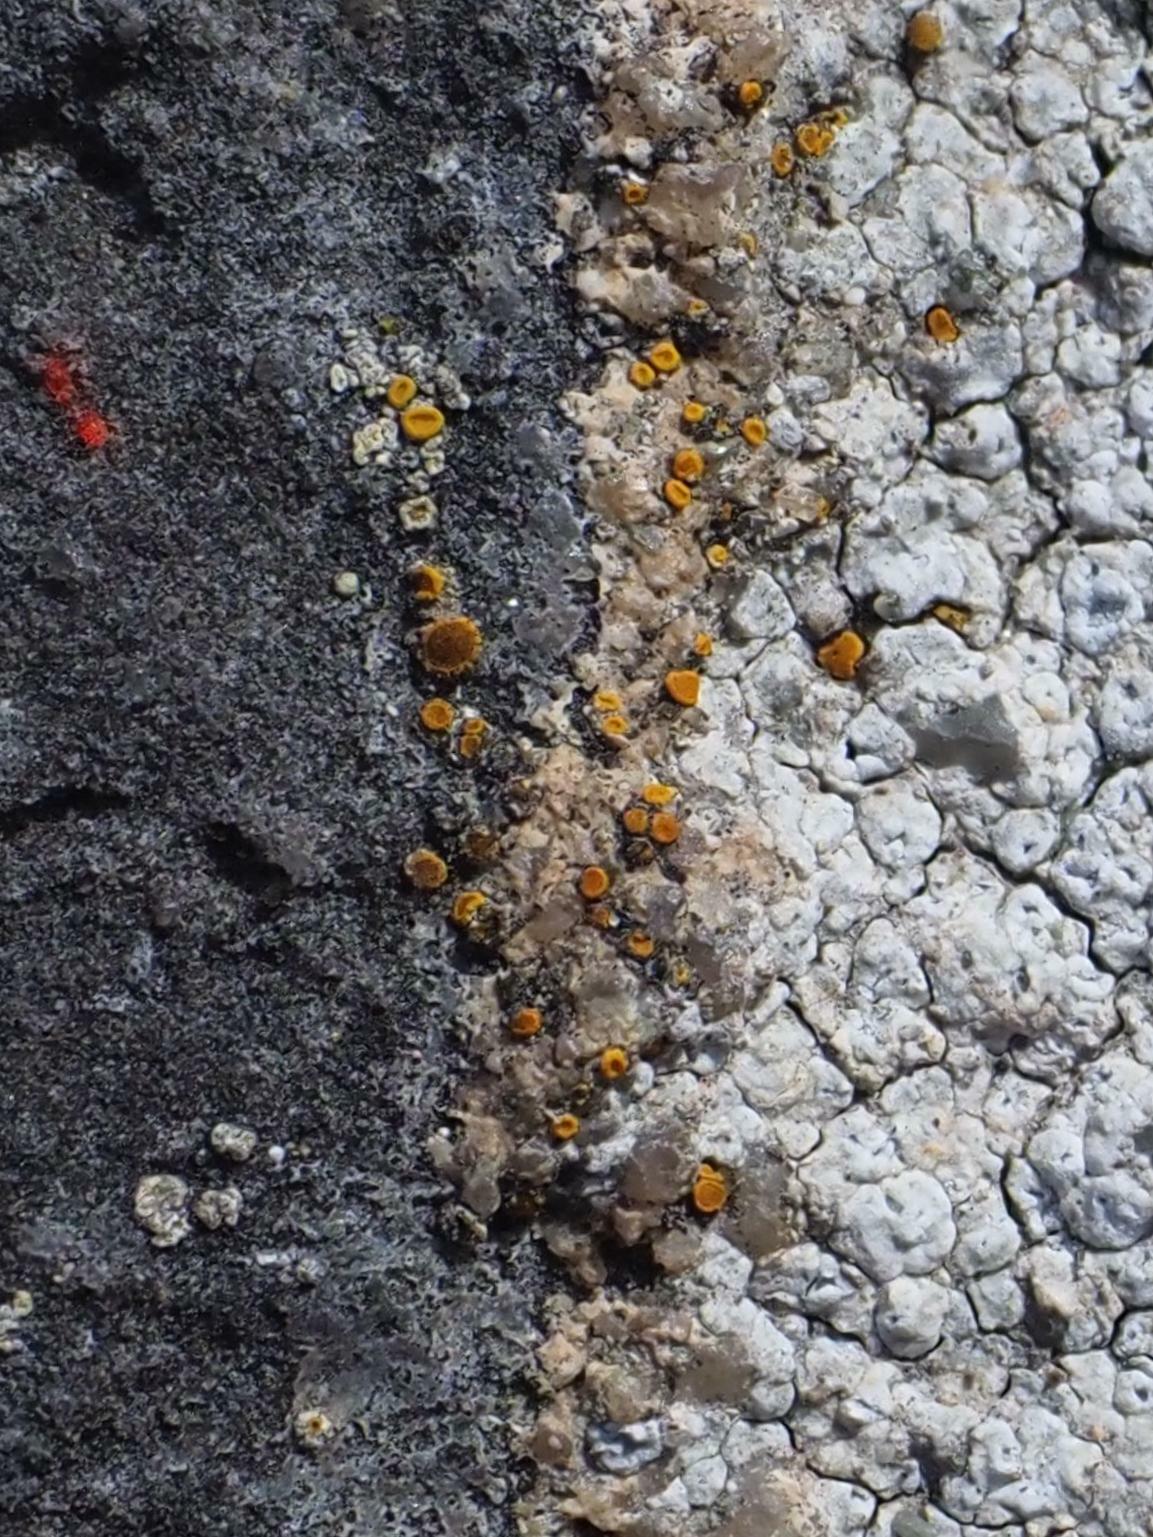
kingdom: Fungi
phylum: Ascomycota
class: Candelariomycetes
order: Candelariales
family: Candelariaceae
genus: Candelariella
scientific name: Candelariella aurella
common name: Hidden goldspeck lichen
